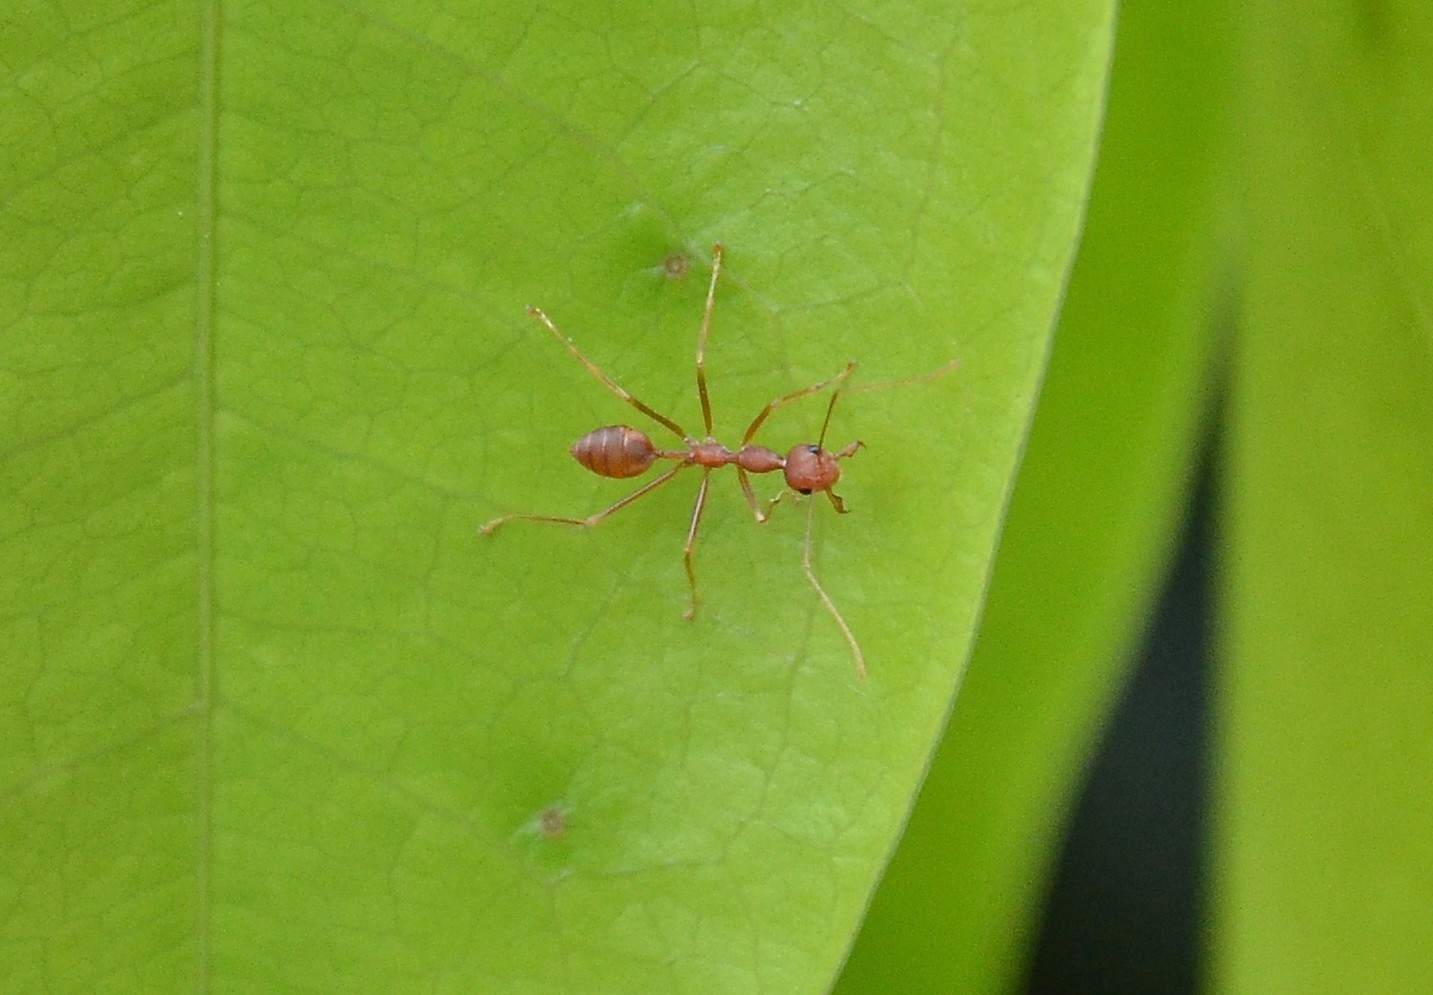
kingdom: Animalia
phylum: Arthropoda
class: Insecta
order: Hymenoptera
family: Formicidae
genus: Oecophylla
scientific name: Oecophylla smaragdina
